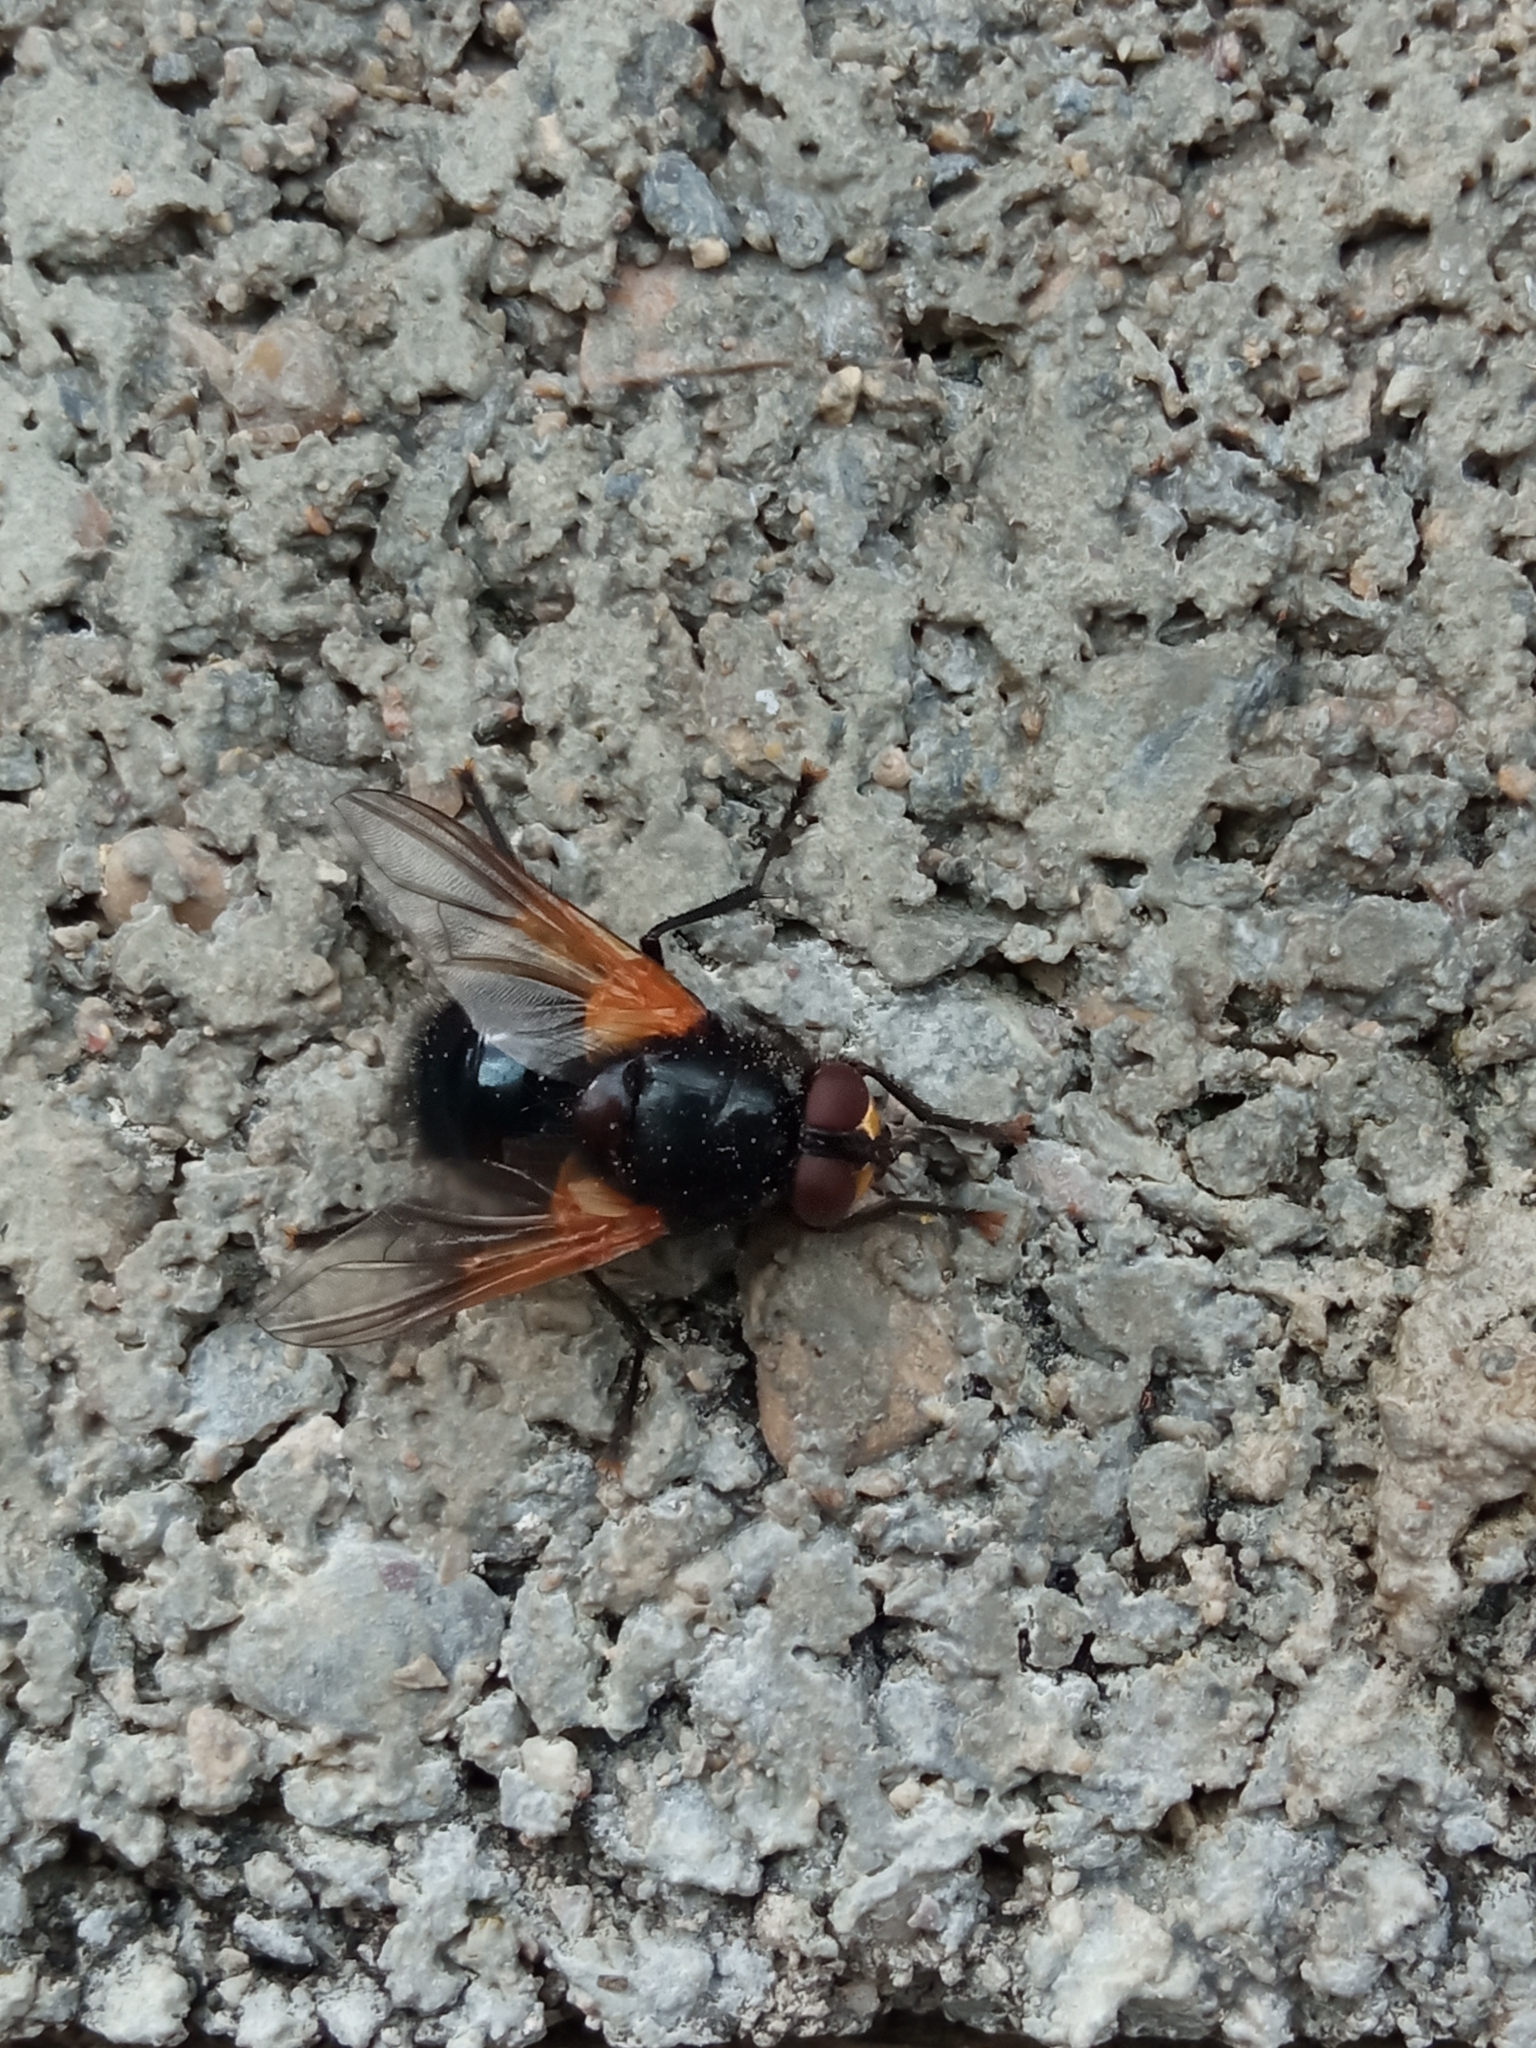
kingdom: Animalia
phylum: Arthropoda
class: Insecta
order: Diptera
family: Muscidae
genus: Mesembrina
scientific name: Mesembrina meridiana
